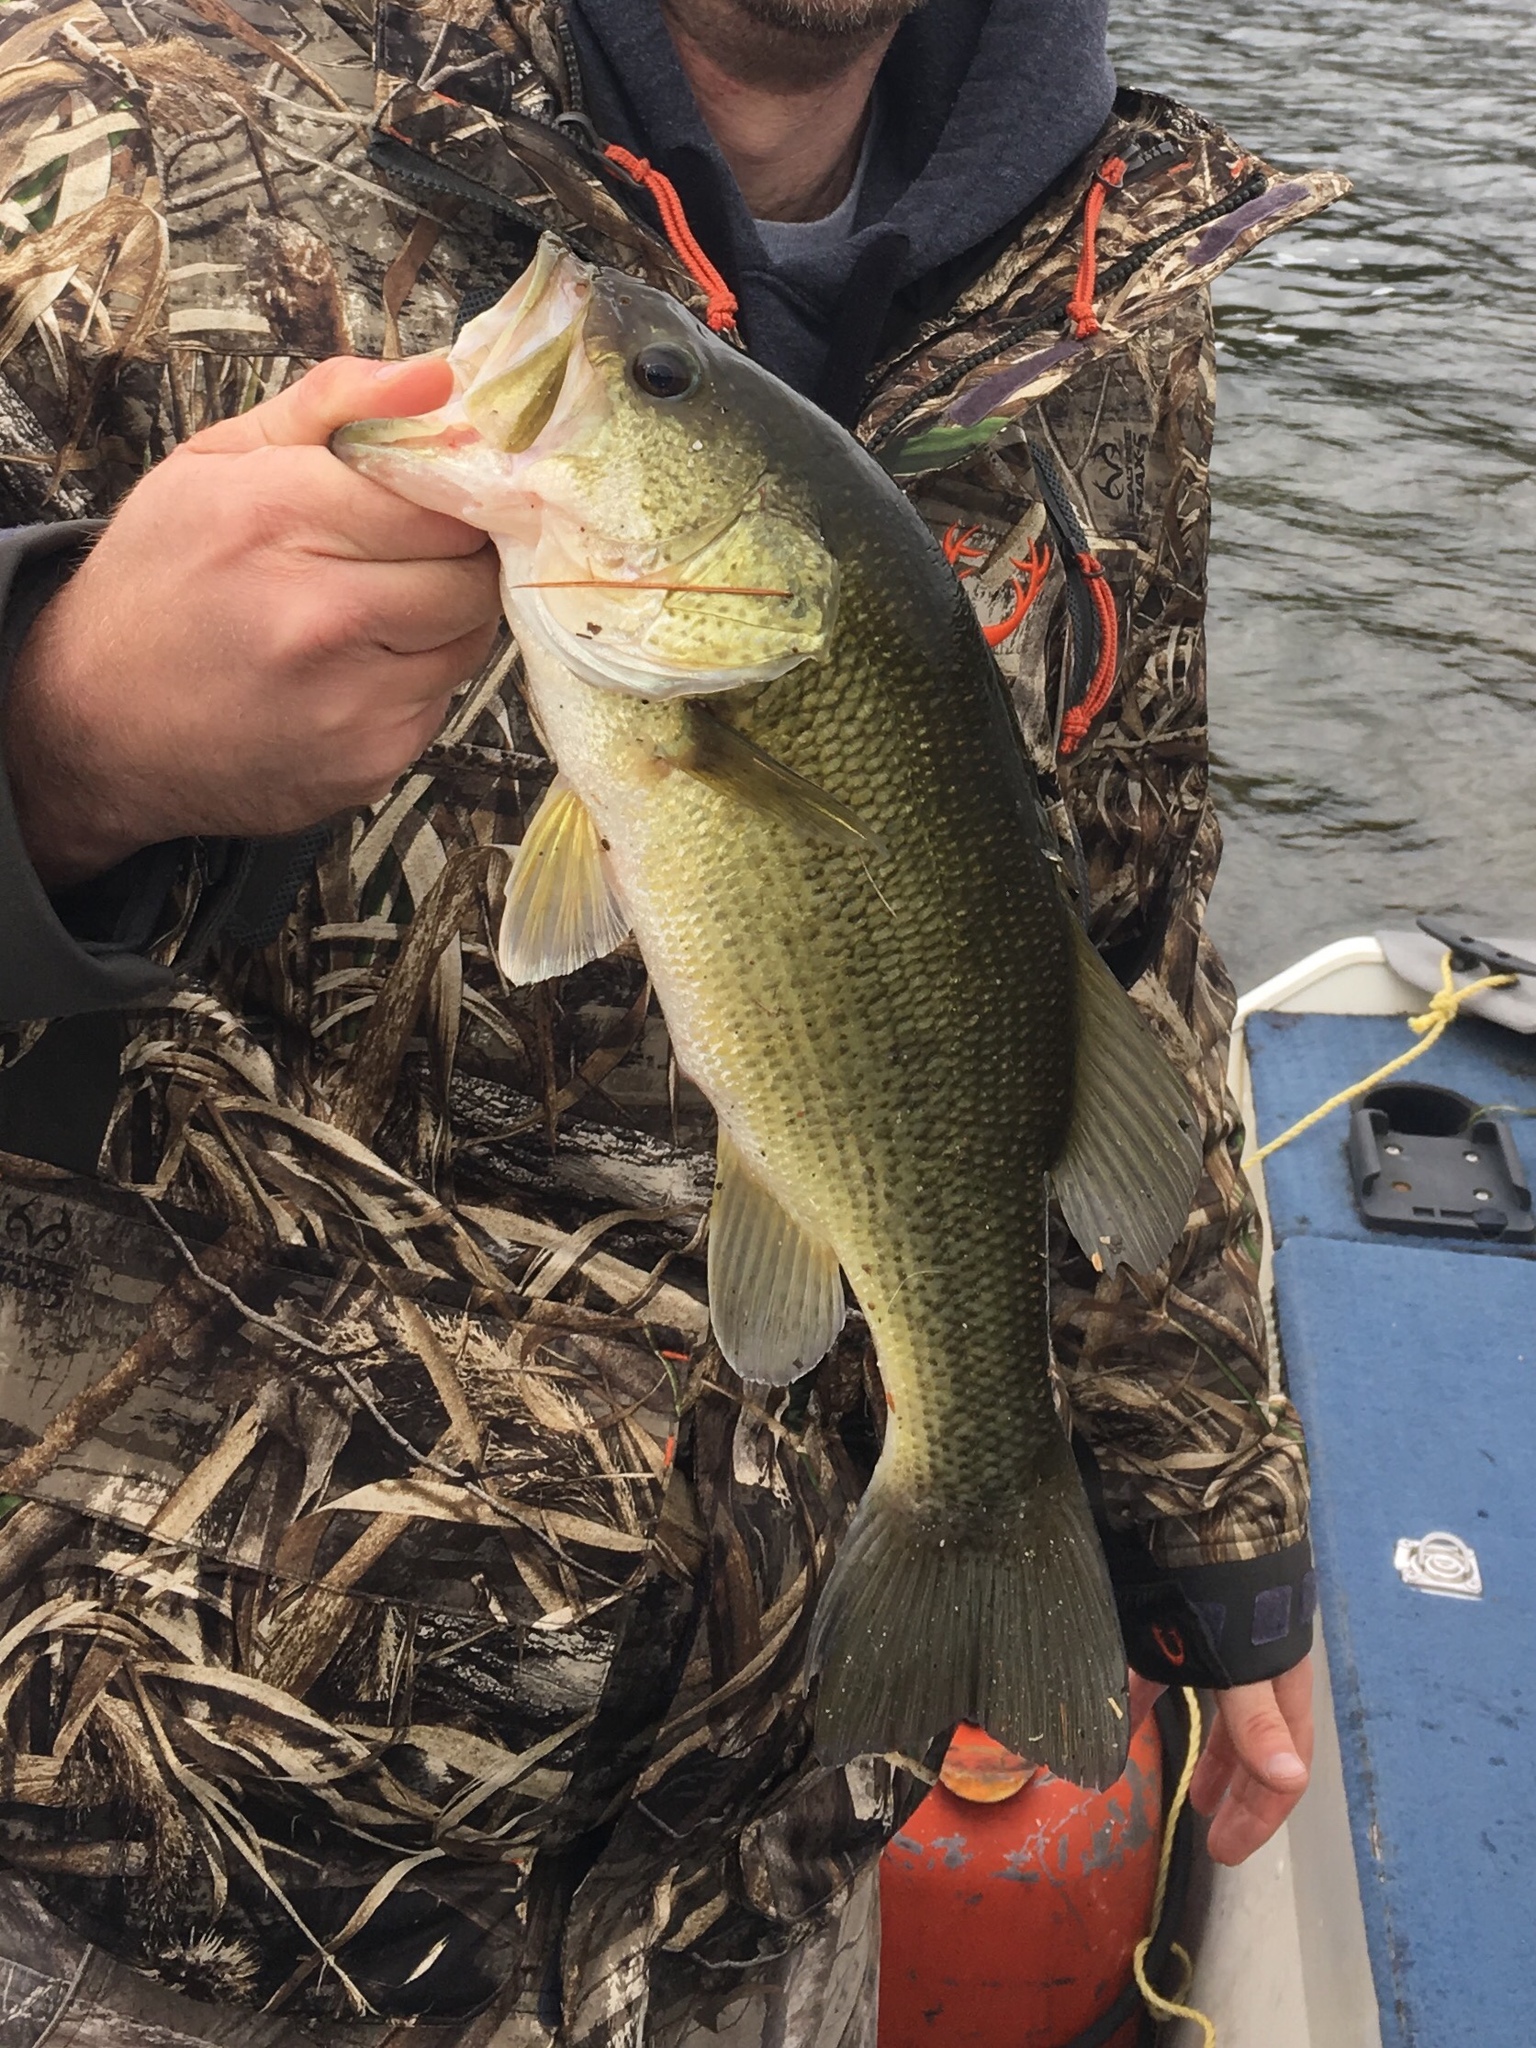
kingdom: Animalia
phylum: Chordata
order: Perciformes
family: Centrarchidae
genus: Micropterus
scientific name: Micropterus
